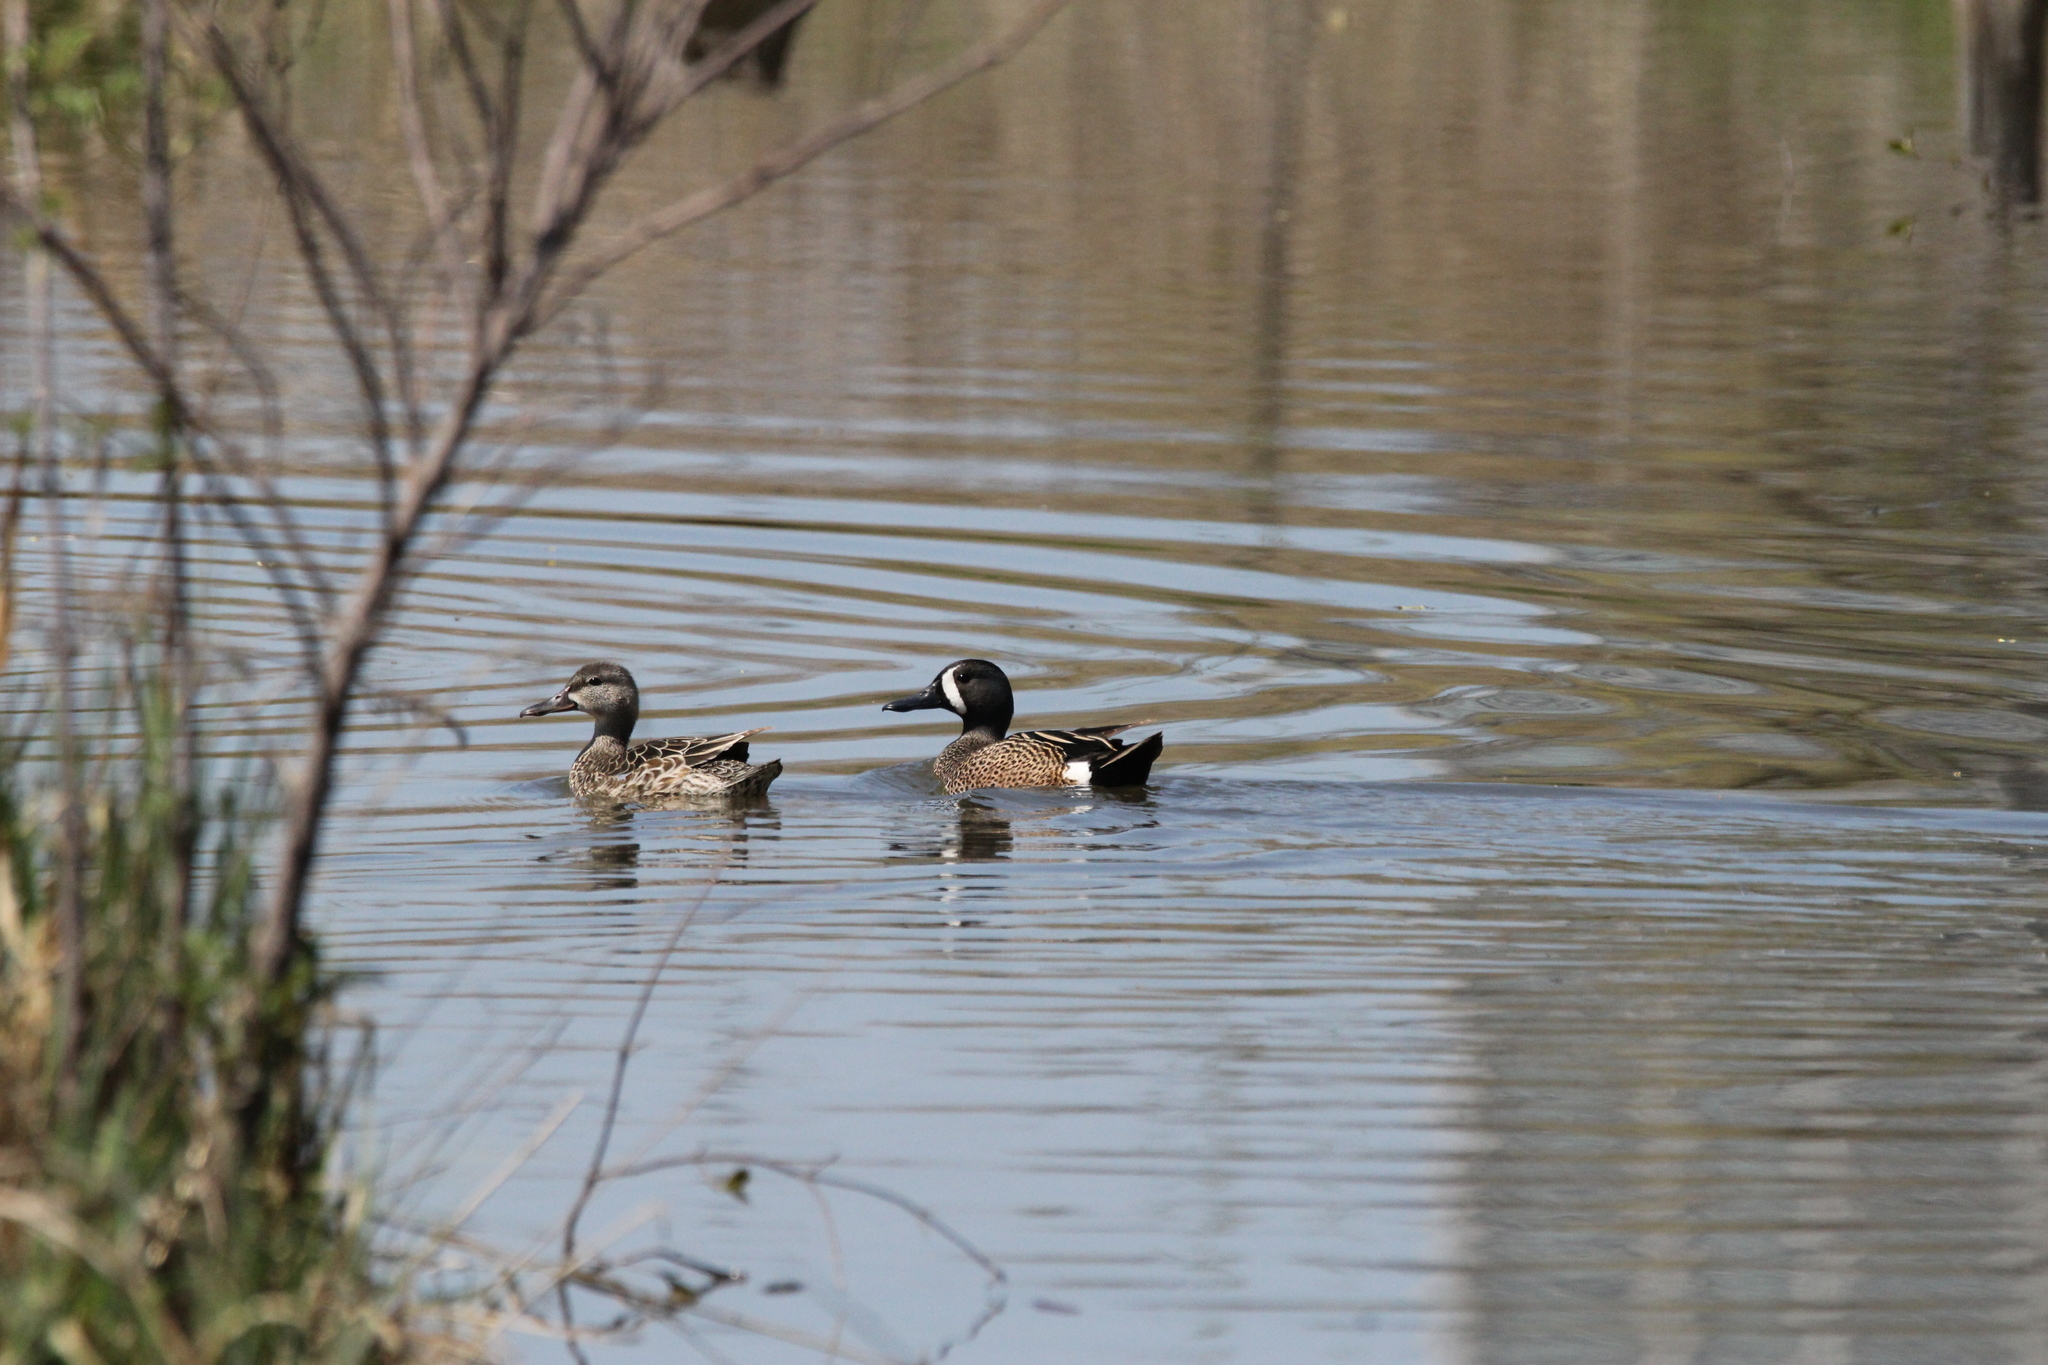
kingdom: Animalia
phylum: Chordata
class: Aves
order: Anseriformes
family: Anatidae
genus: Spatula
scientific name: Spatula discors
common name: Blue-winged teal
